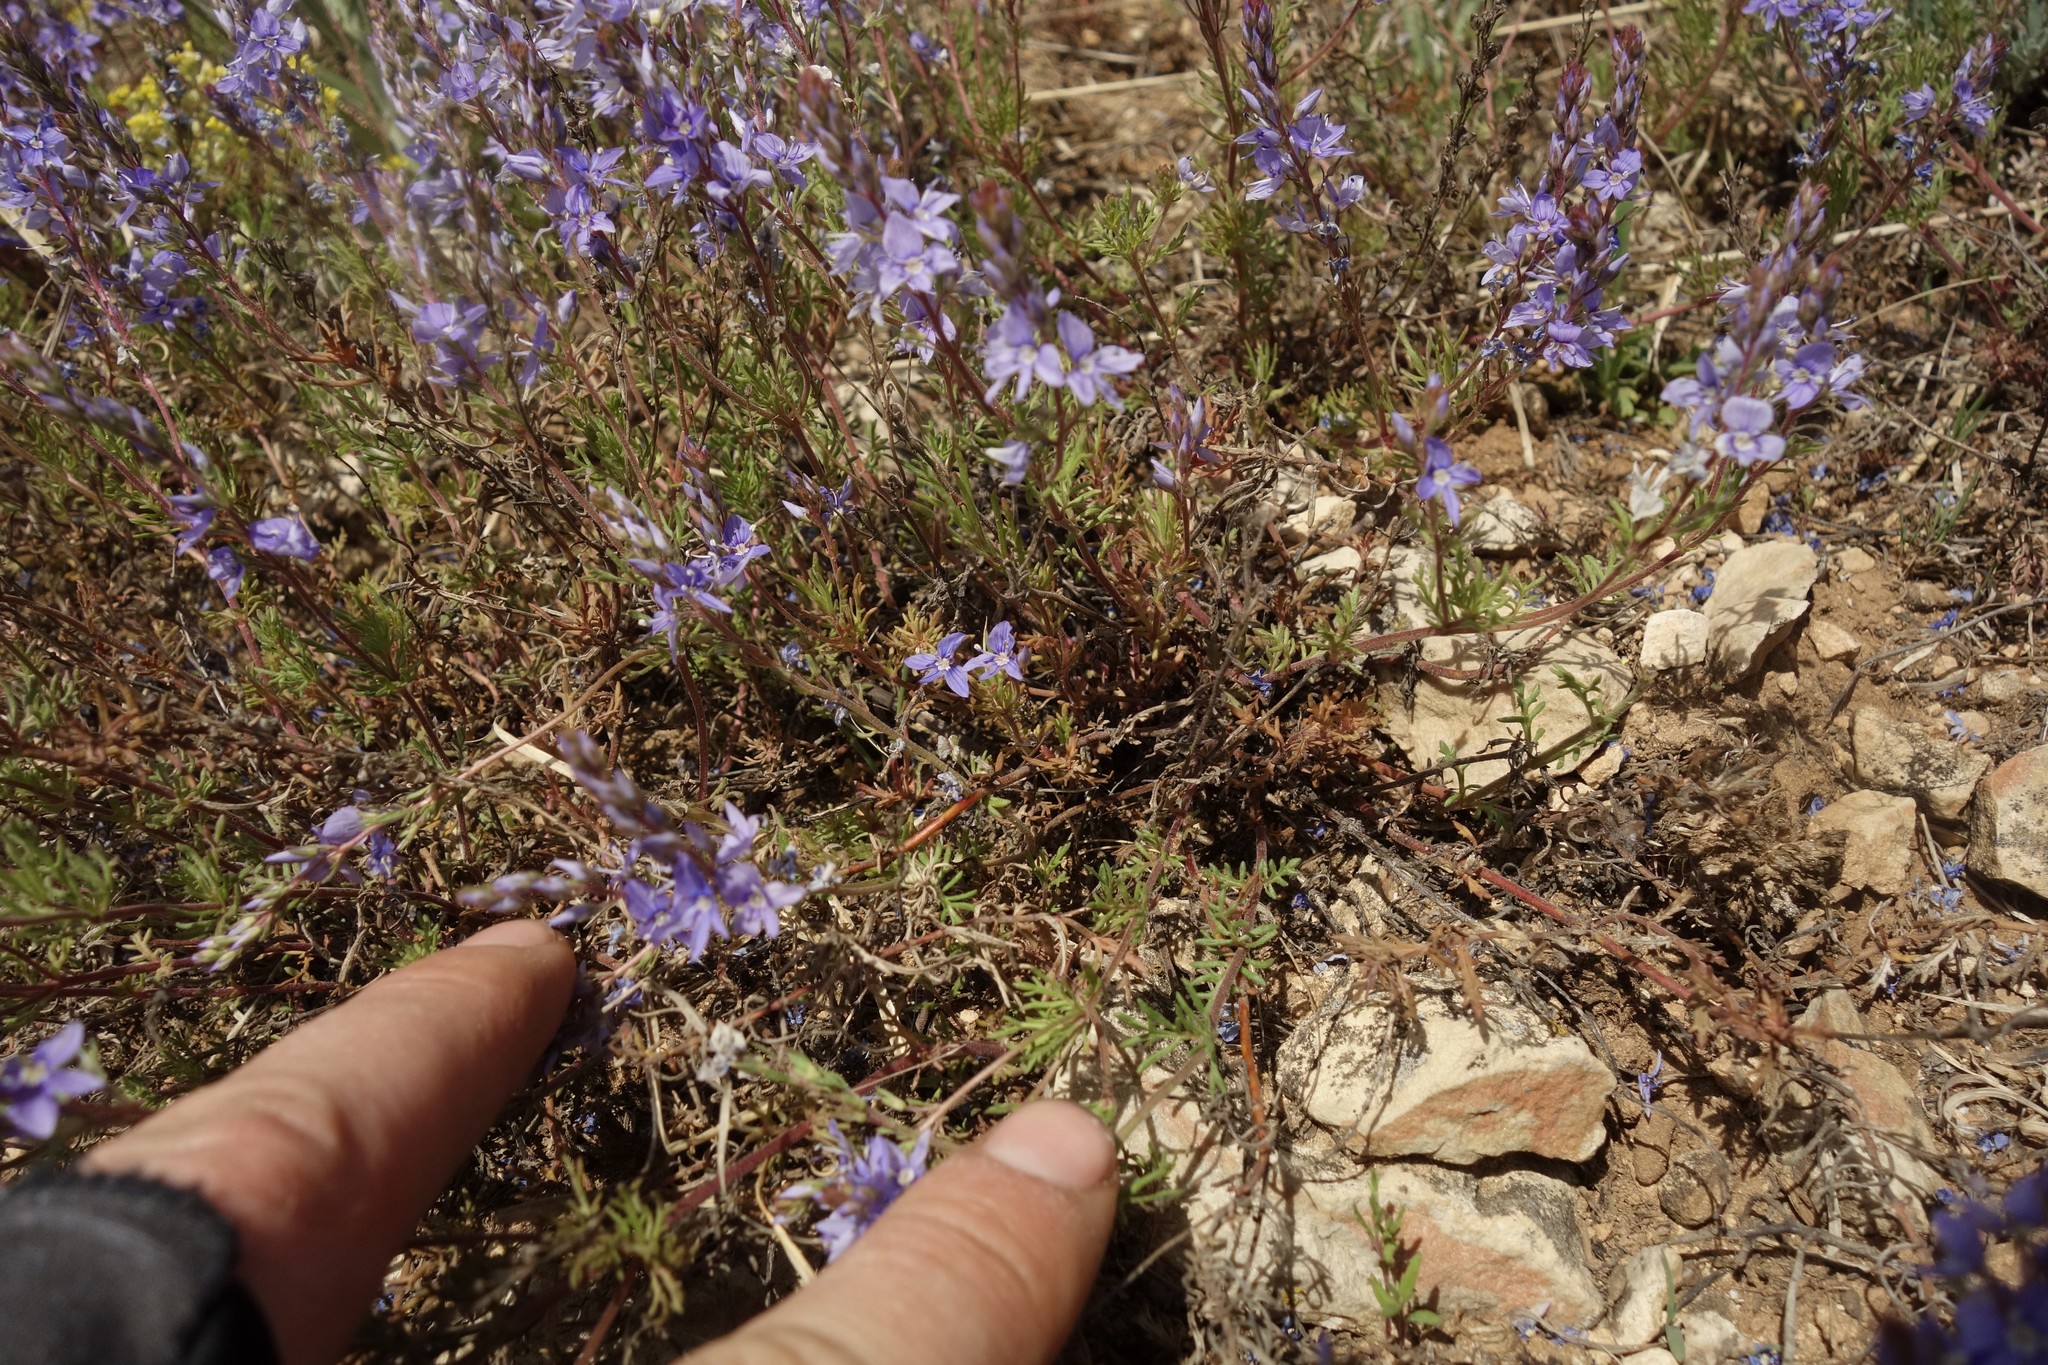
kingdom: Plantae
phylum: Tracheophyta
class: Magnoliopsida
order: Lamiales
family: Plantaginaceae
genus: Veronica
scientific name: Veronica multifida
